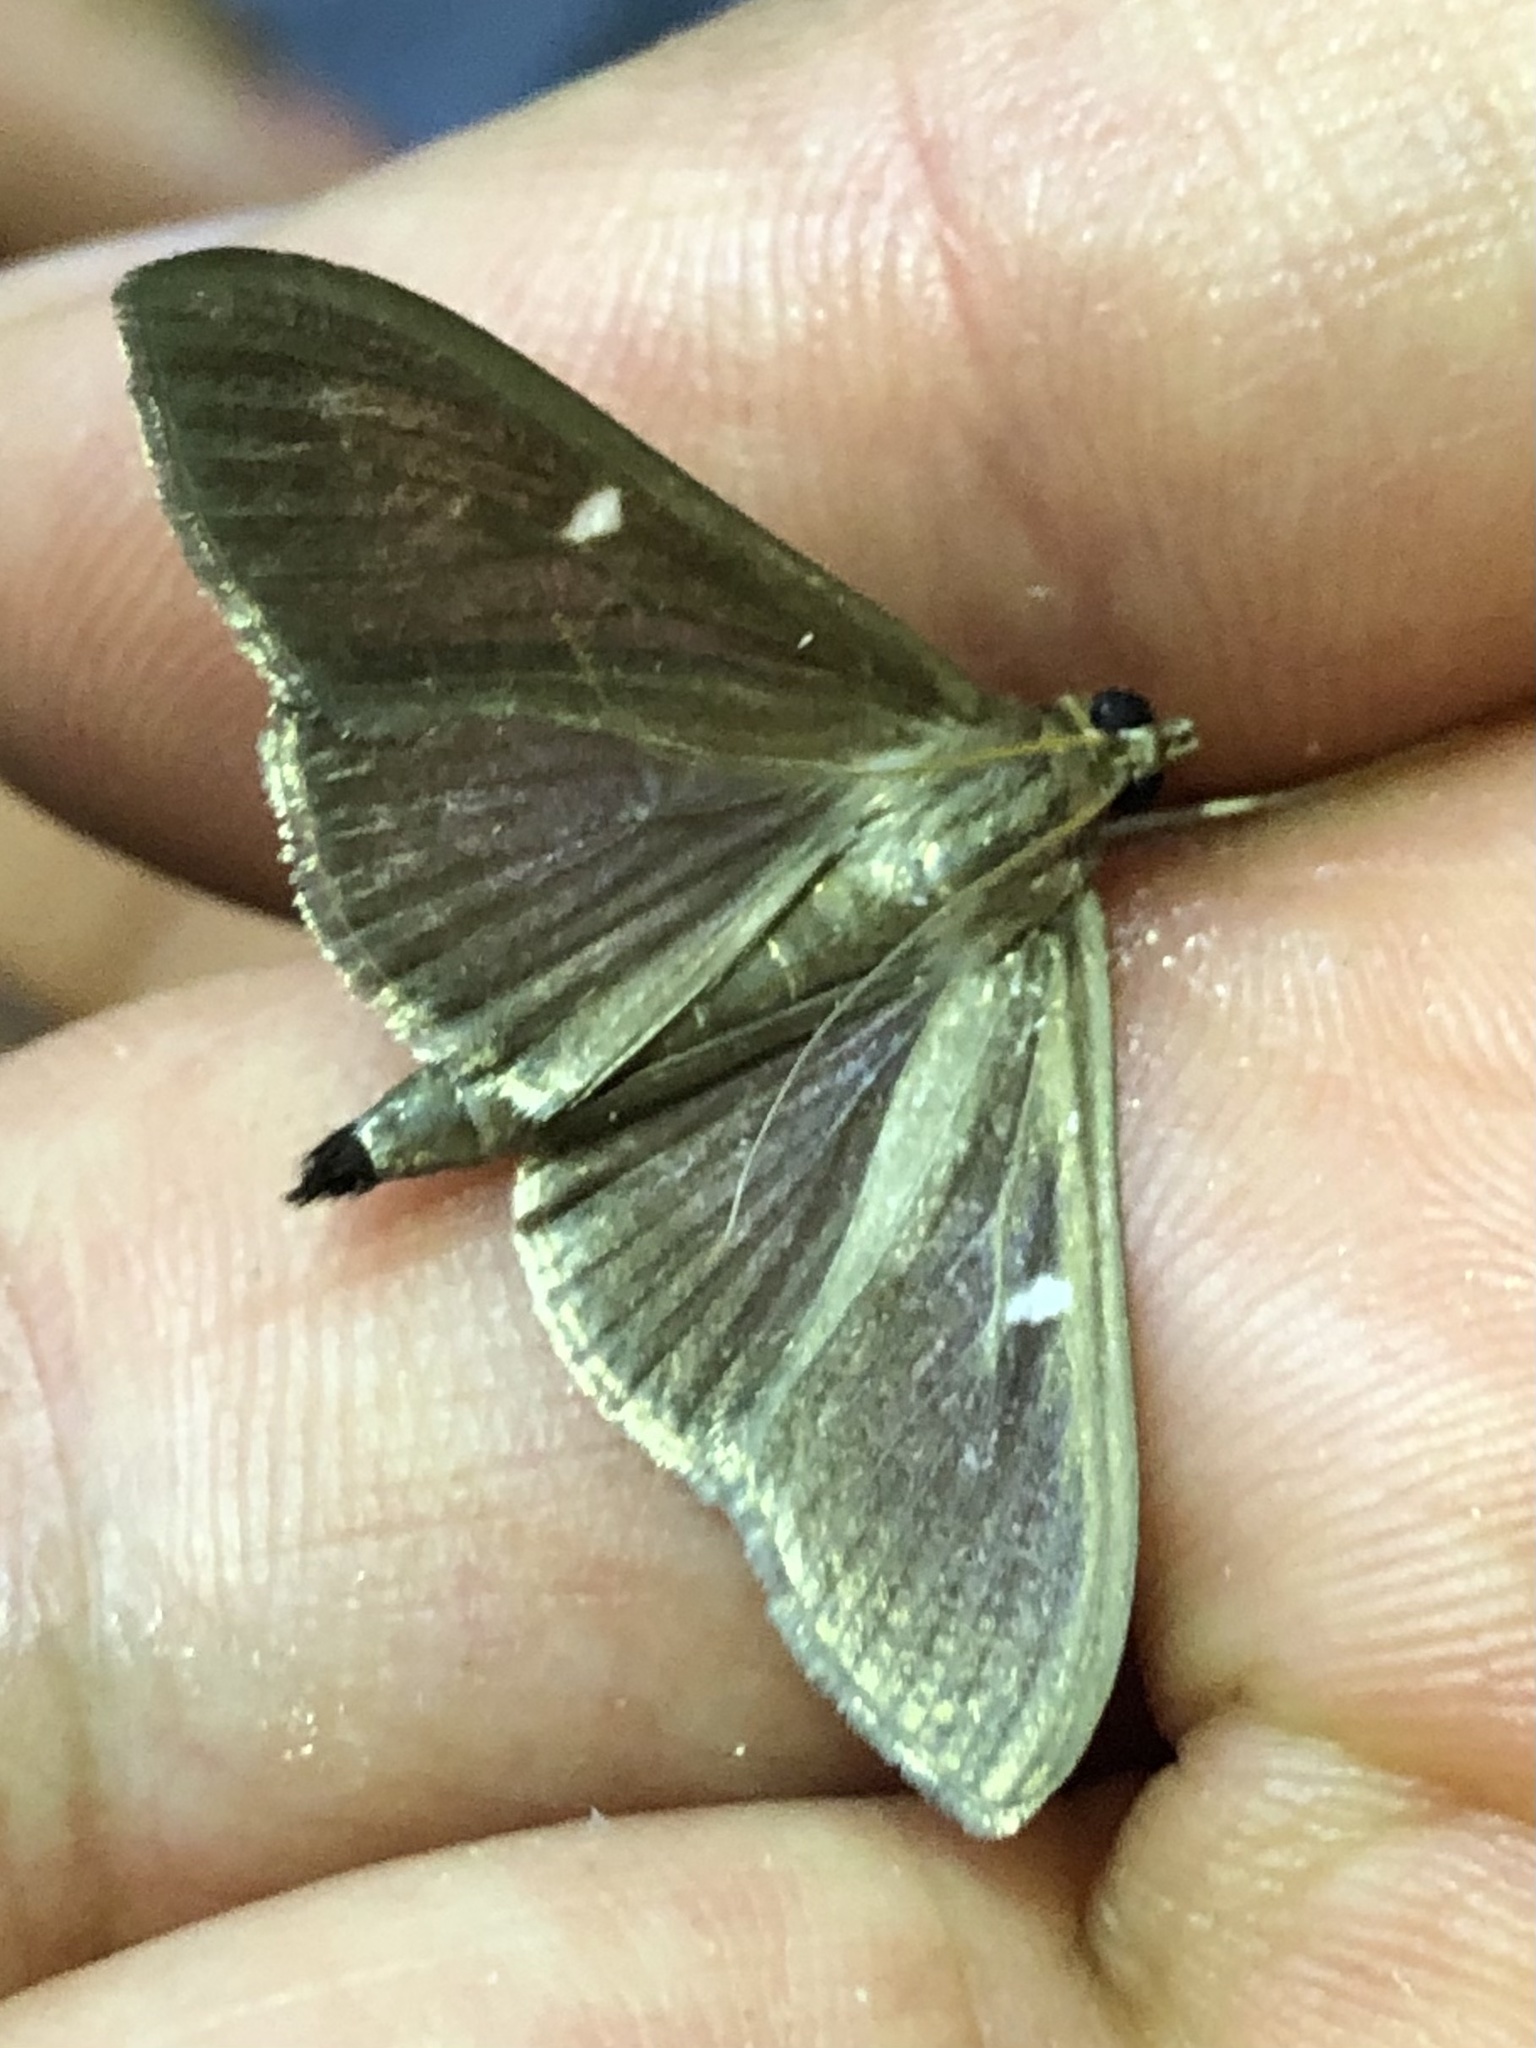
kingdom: Animalia
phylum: Arthropoda
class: Insecta
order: Lepidoptera
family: Crambidae
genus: Cydalima
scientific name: Cydalima perspectalis
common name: Box tree moth
